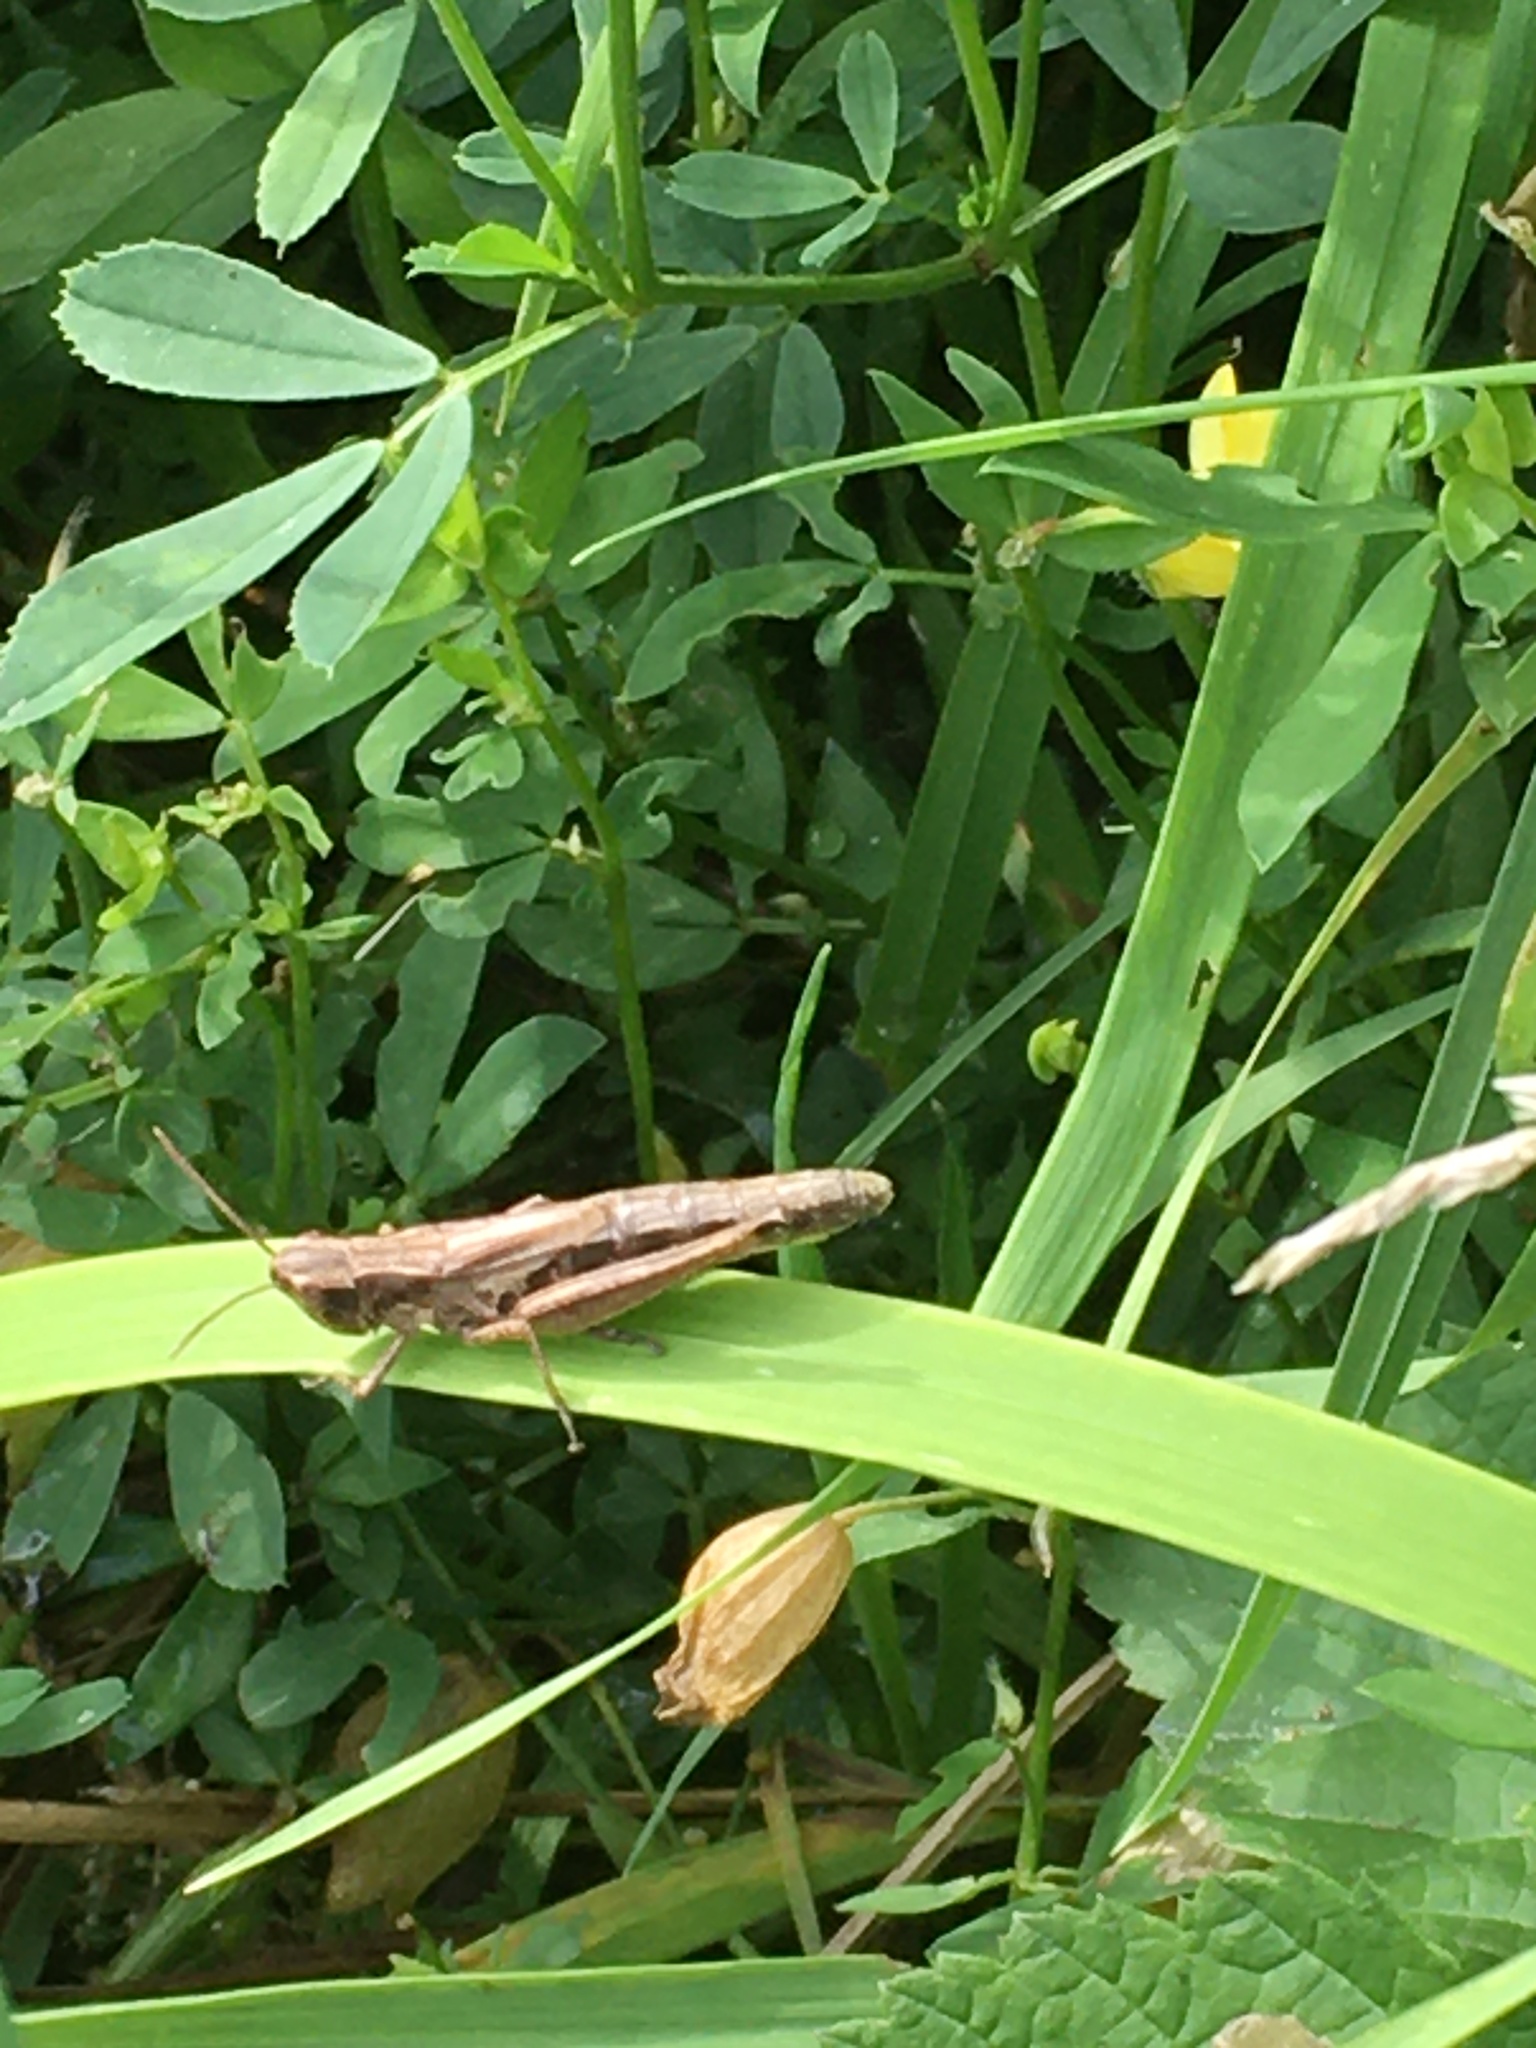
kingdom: Animalia
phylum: Arthropoda
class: Insecta
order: Orthoptera
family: Acrididae
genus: Pseudochorthippus
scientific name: Pseudochorthippus parallelus
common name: Meadow grasshopper
